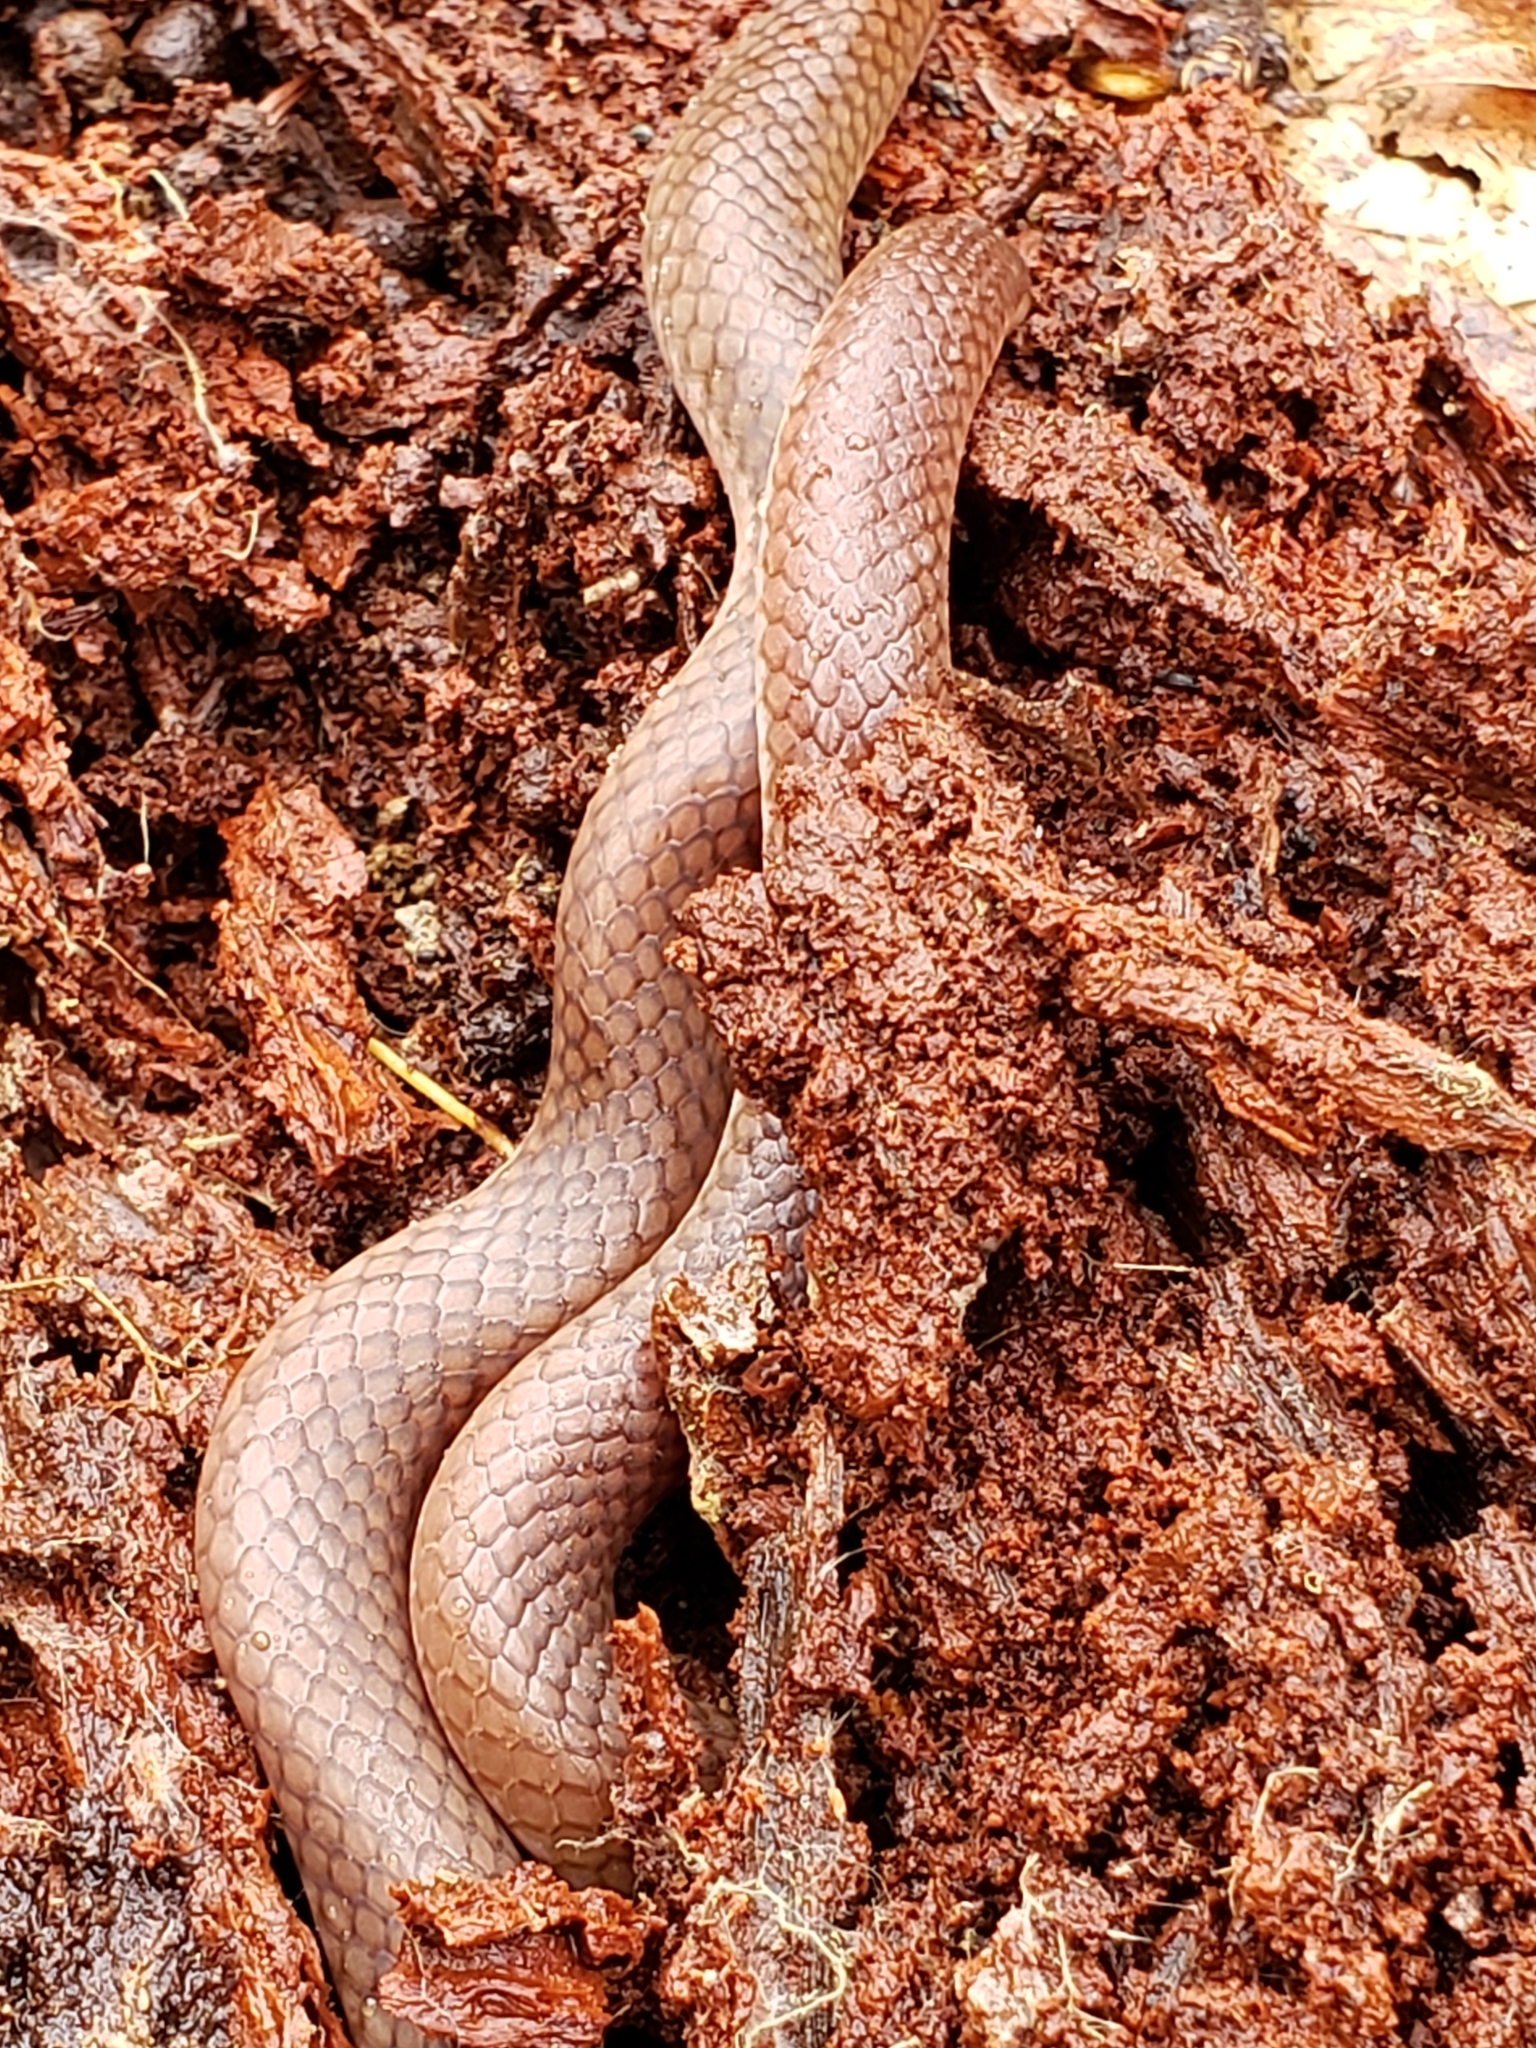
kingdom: Animalia
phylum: Chordata
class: Squamata
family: Colubridae
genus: Carphophis
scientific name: Carphophis amoenus
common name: Eastern worm snake
